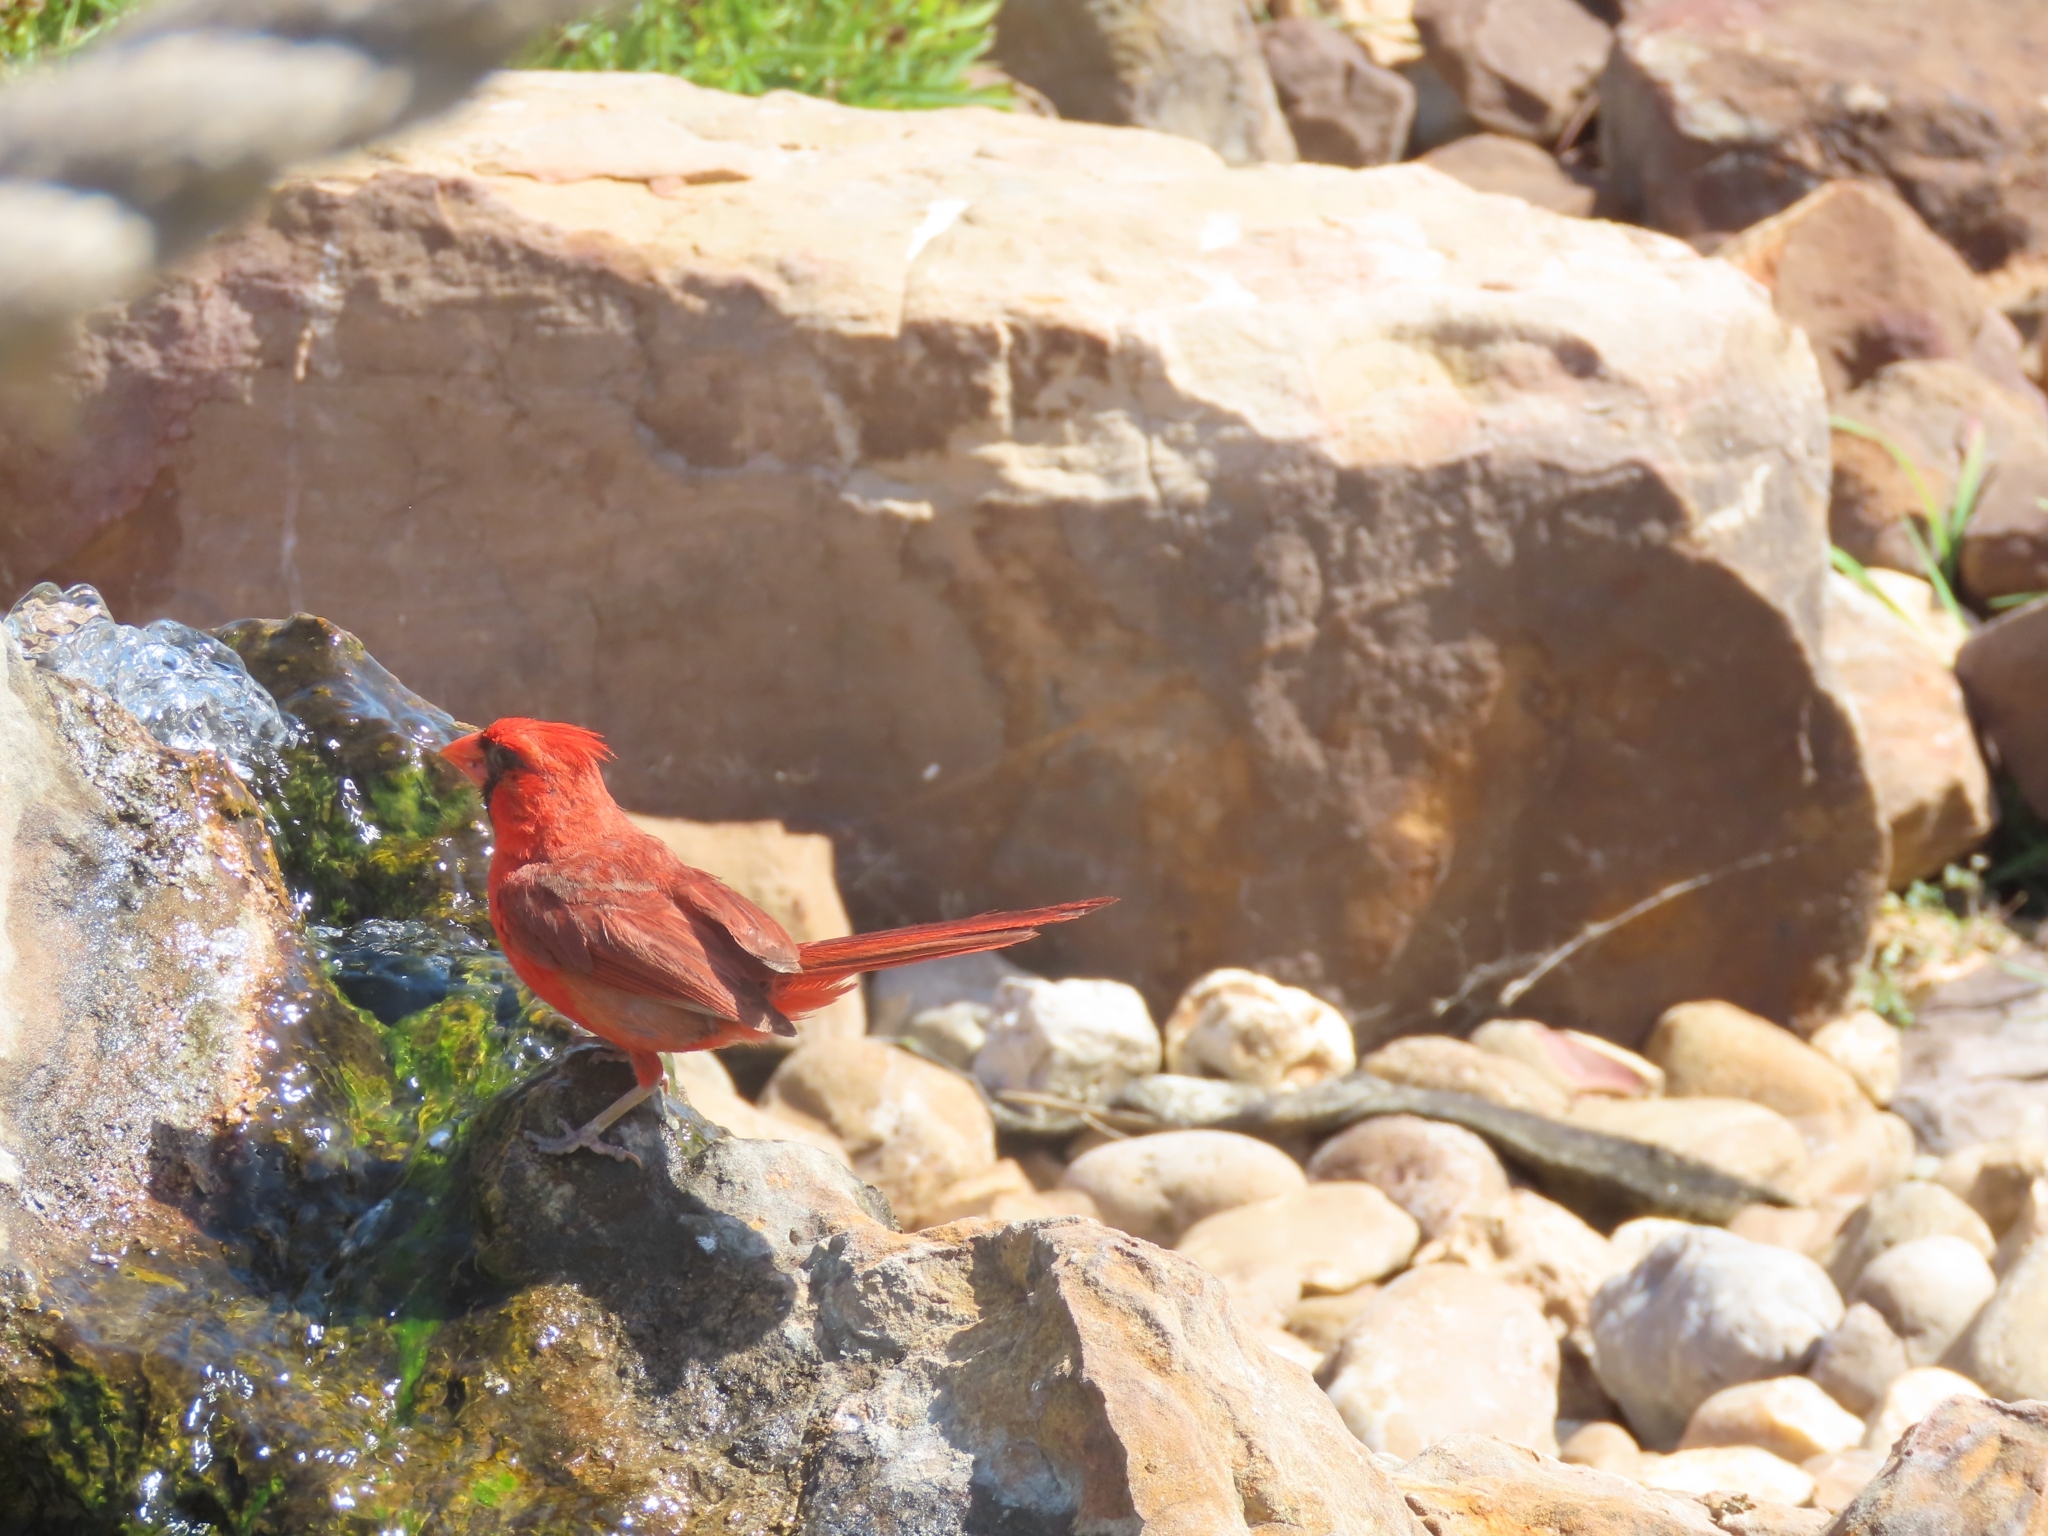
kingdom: Animalia
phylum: Chordata
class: Aves
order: Passeriformes
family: Cardinalidae
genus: Cardinalis
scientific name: Cardinalis cardinalis
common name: Northern cardinal
